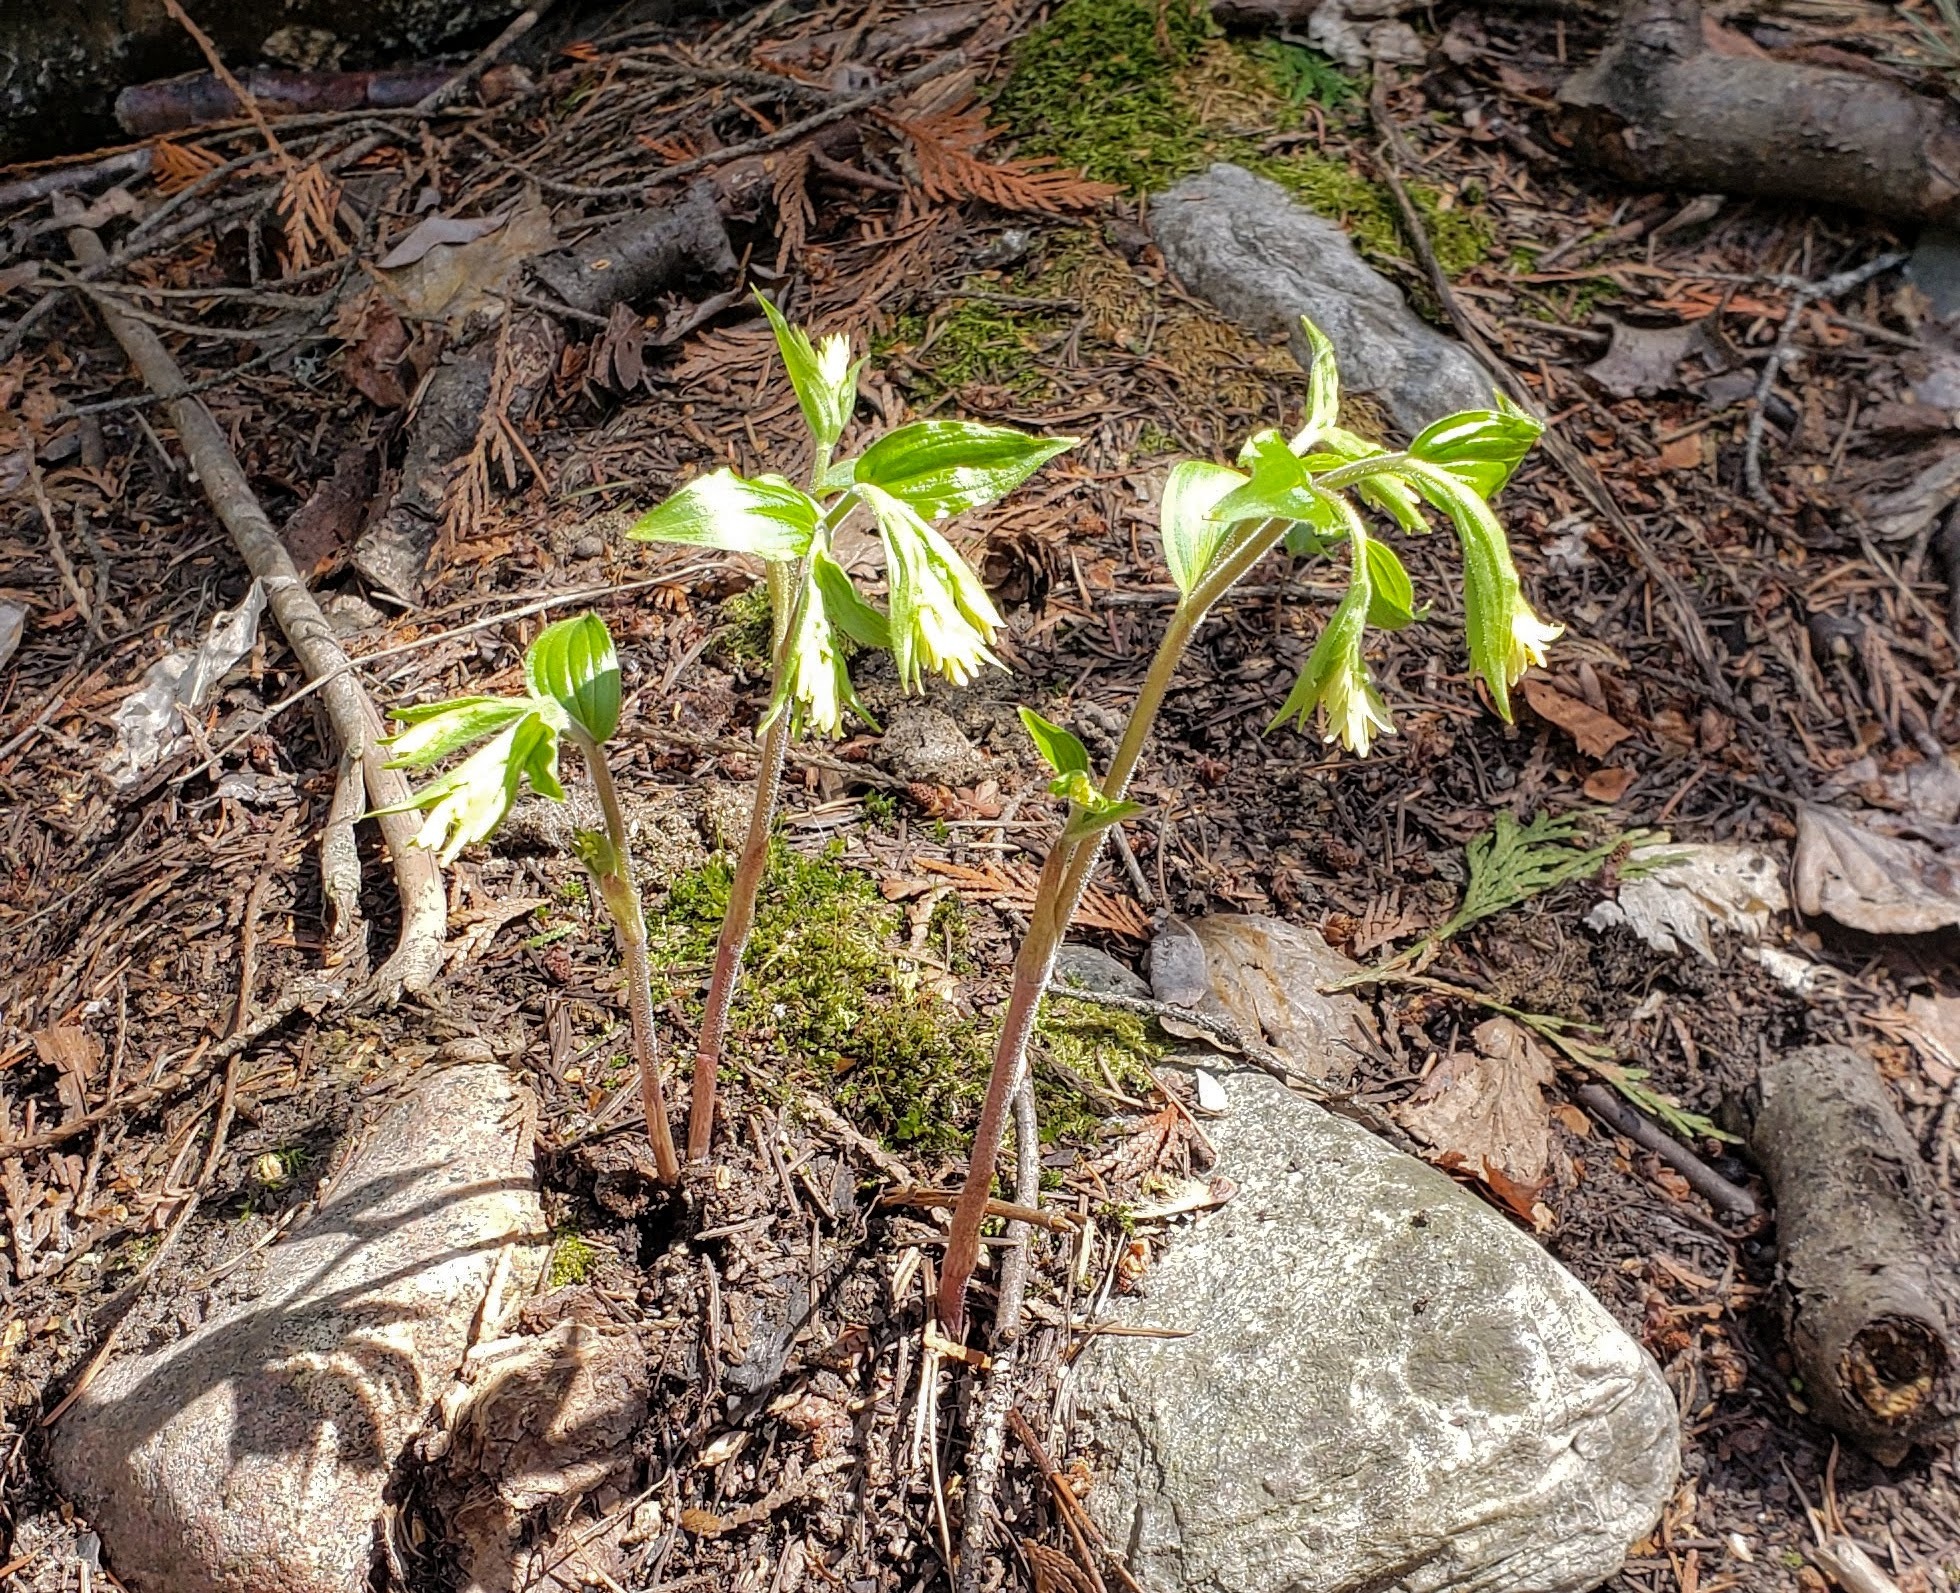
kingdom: Plantae
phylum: Tracheophyta
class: Liliopsida
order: Liliales
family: Liliaceae
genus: Prosartes
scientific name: Prosartes trachycarpa
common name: Rough-fruit fairy-bells
